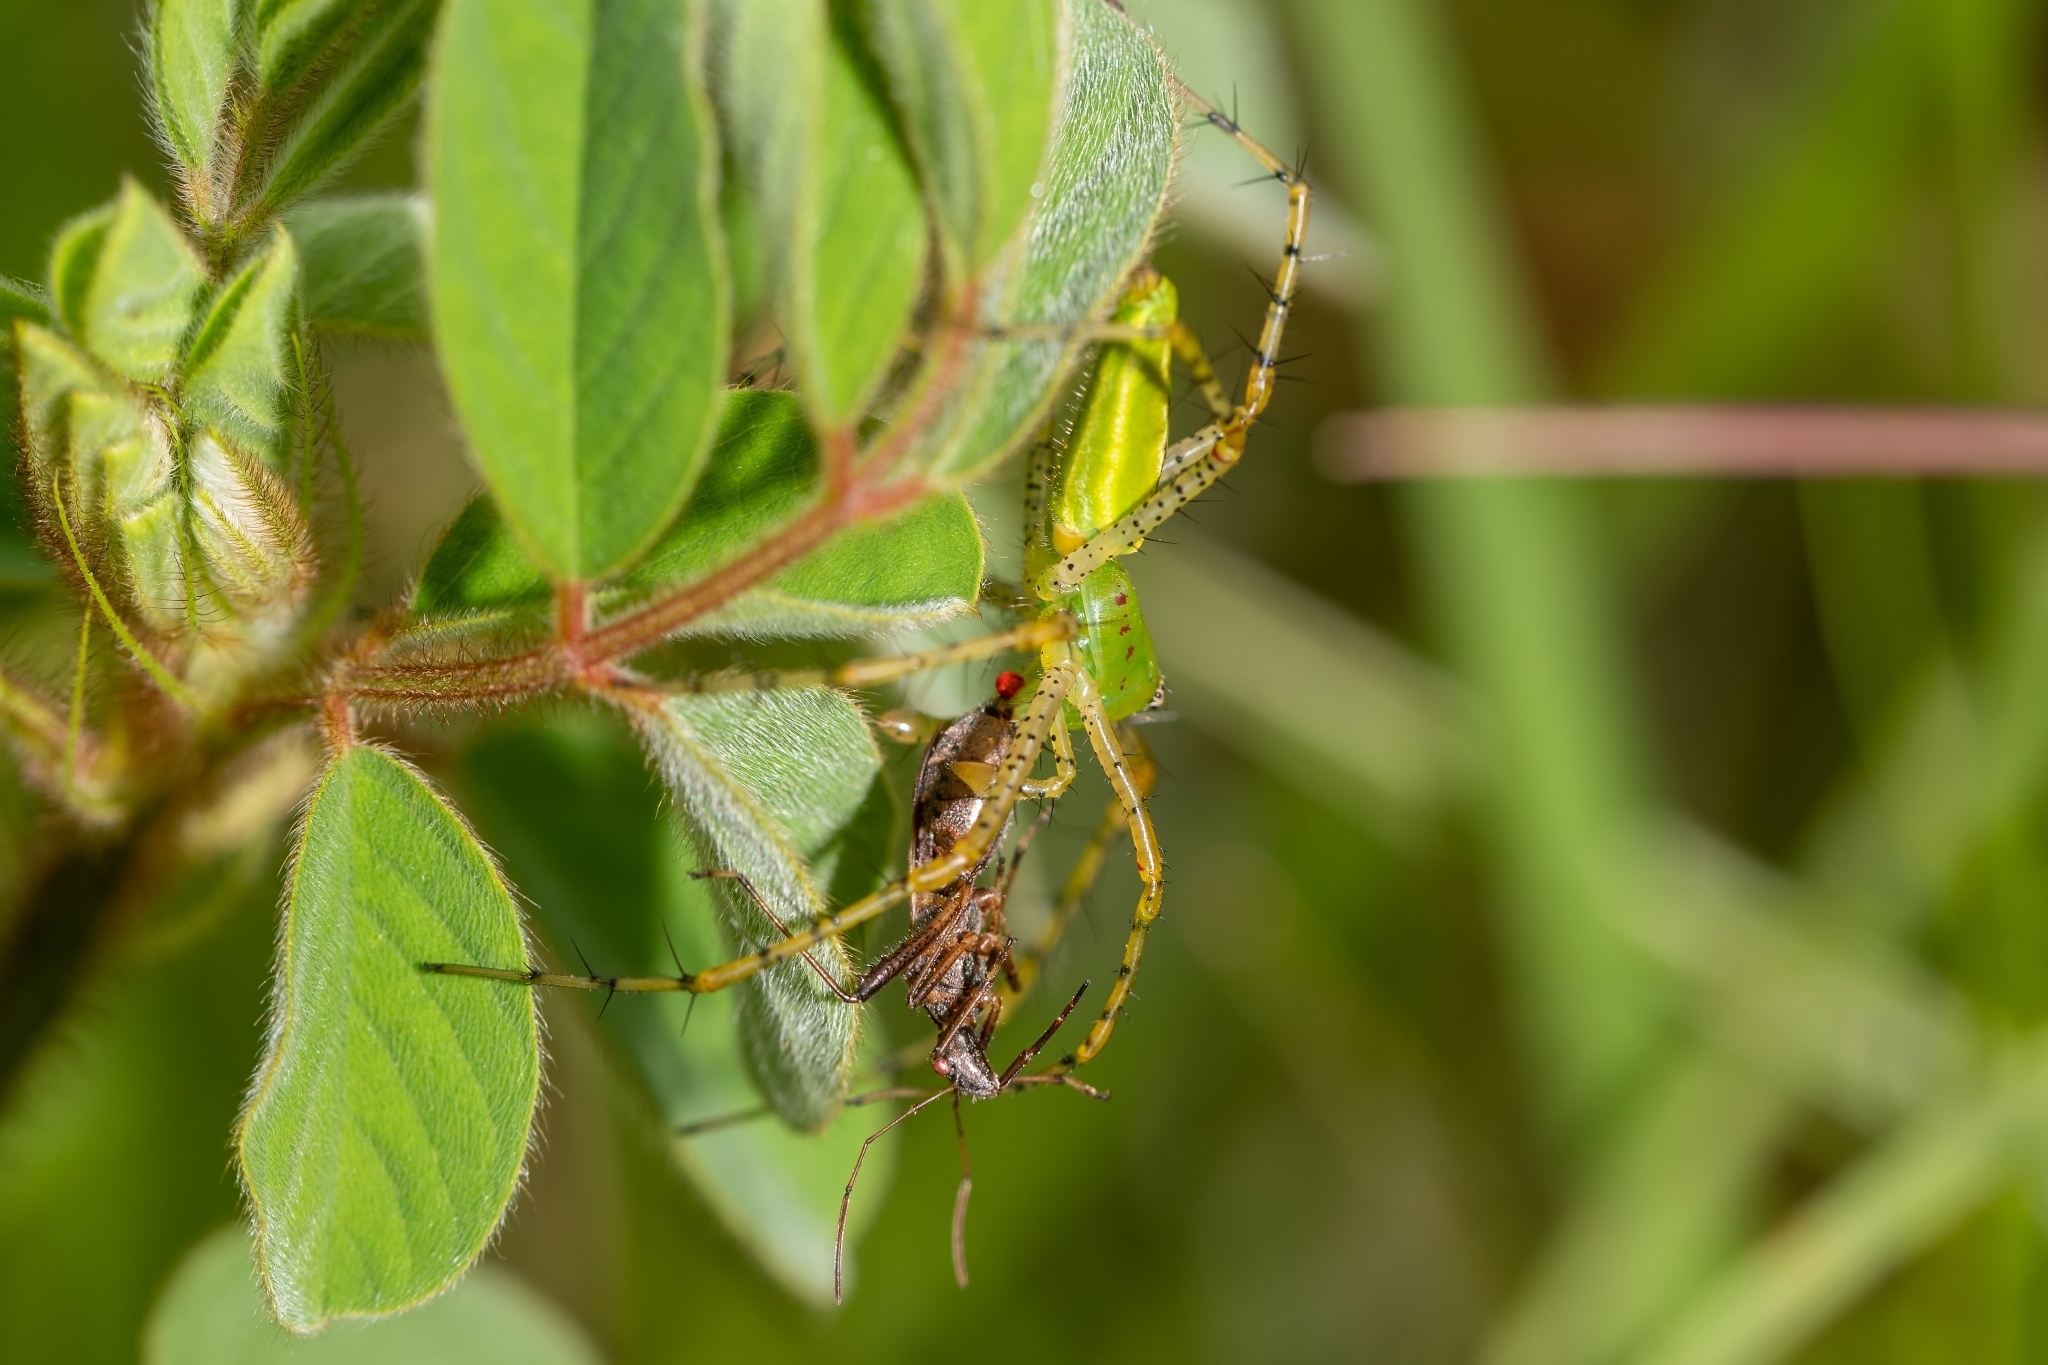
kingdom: Animalia
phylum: Arthropoda
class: Arachnida
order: Araneae
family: Oxyopidae
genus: Peucetia
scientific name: Peucetia viridans
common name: Lynx spiders
